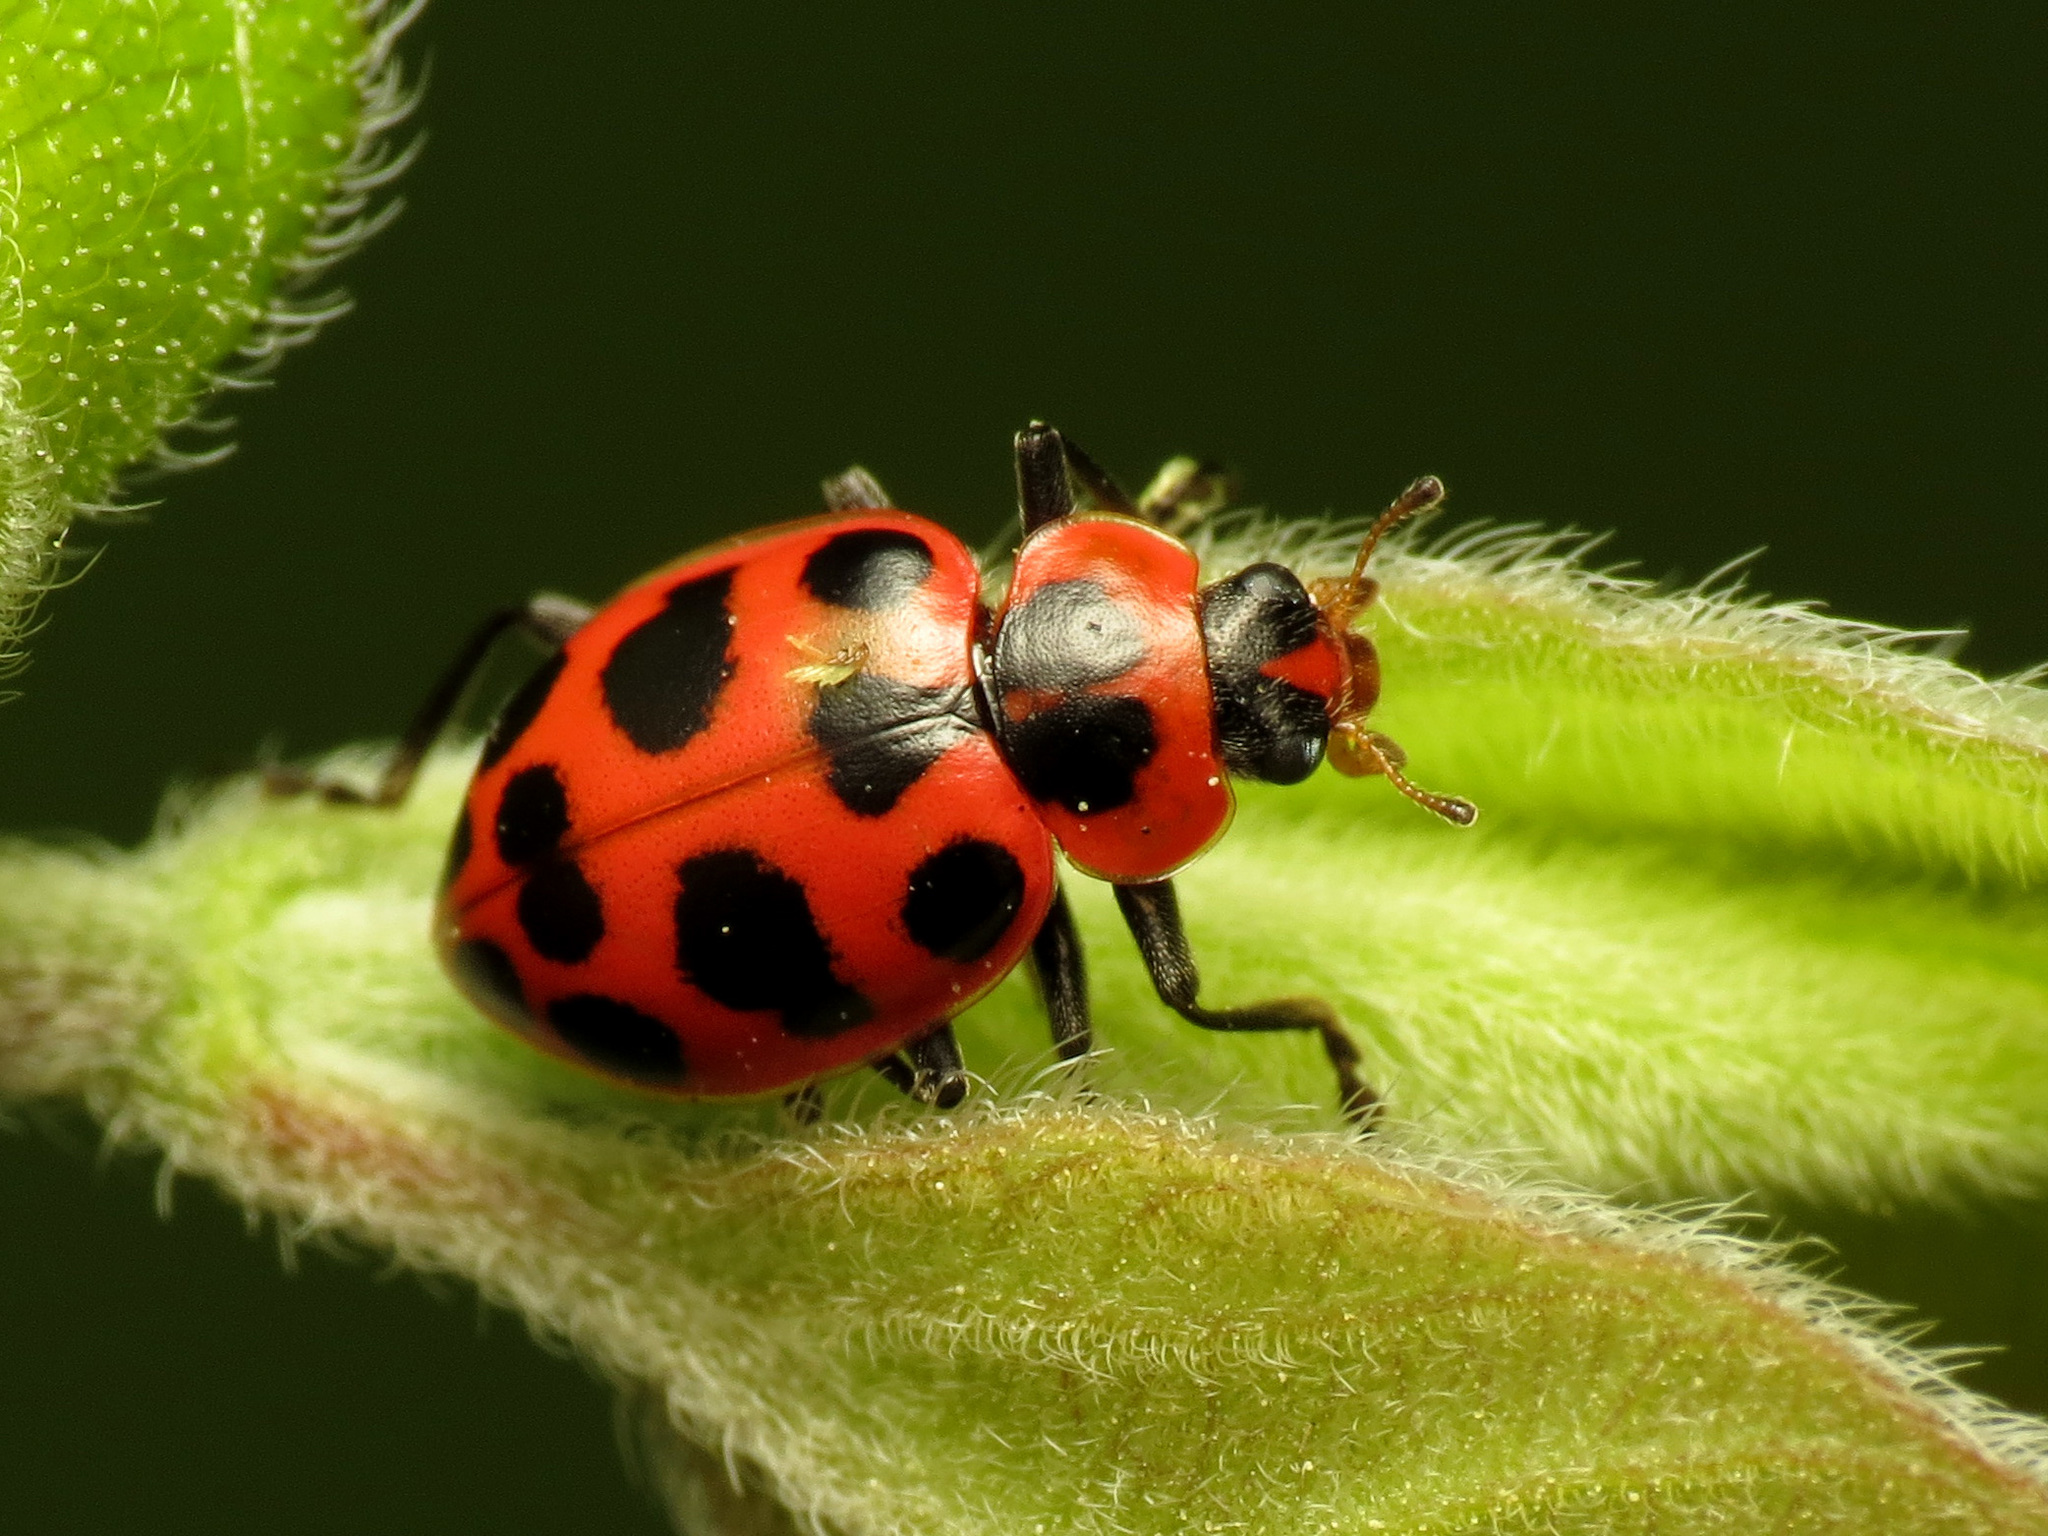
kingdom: Animalia
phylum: Arthropoda
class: Insecta
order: Coleoptera
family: Coccinellidae
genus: Coleomegilla
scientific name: Coleomegilla maculata
